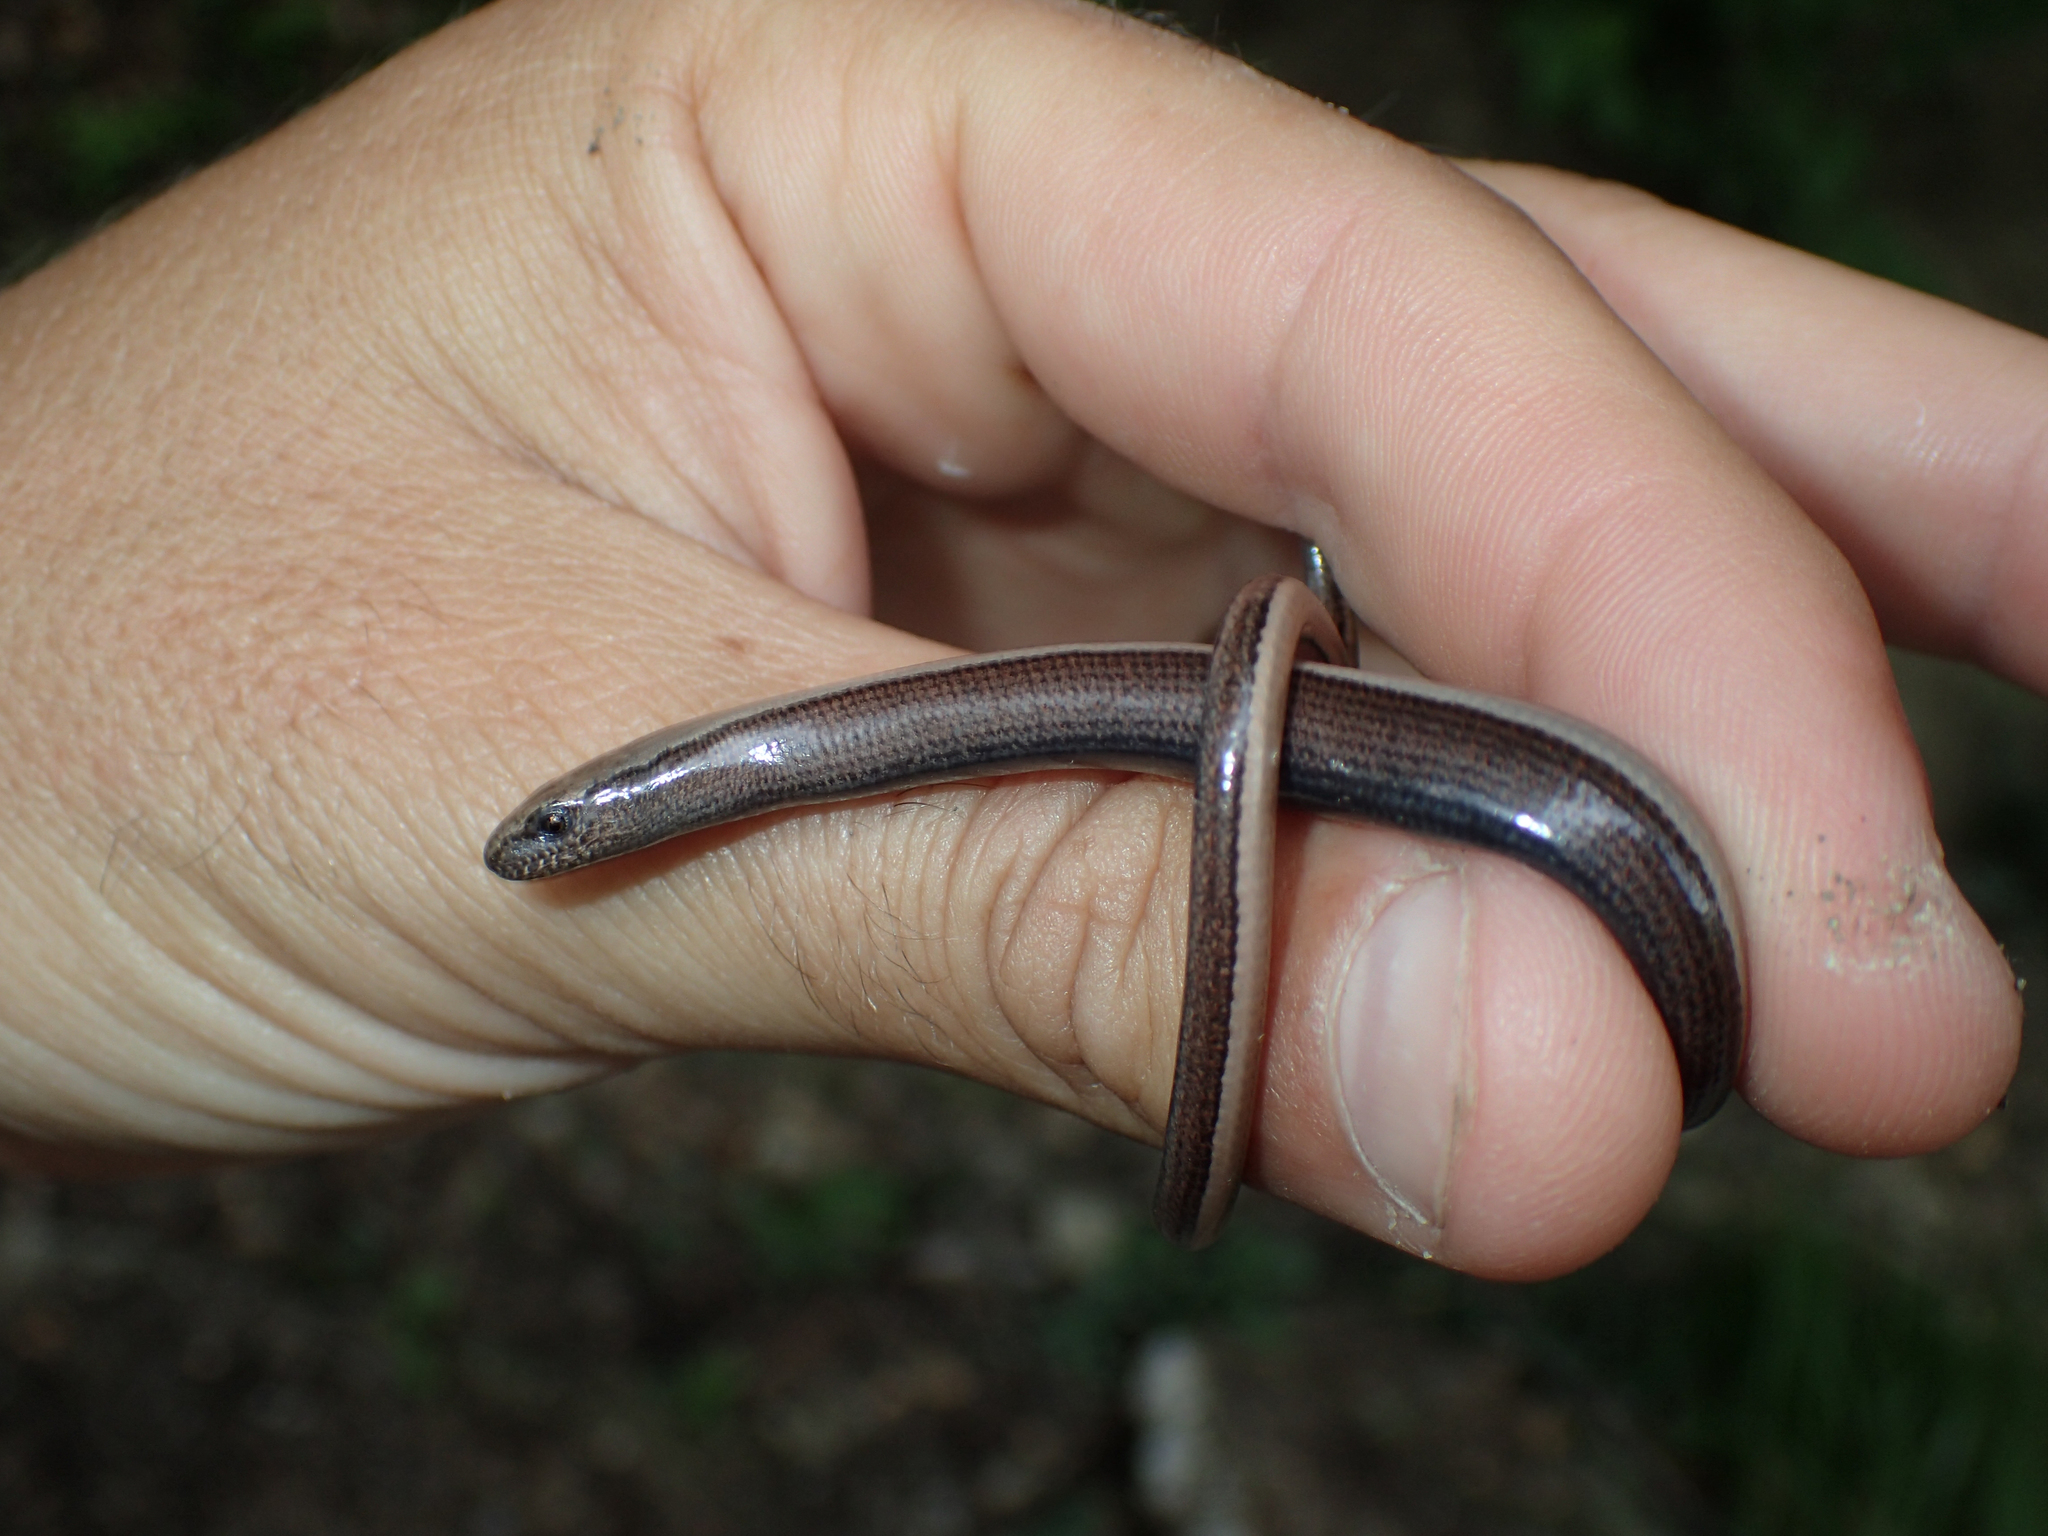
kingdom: Animalia
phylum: Chordata
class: Squamata
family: Anguidae
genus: Anguis
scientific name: Anguis fragilis
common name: Slow worm
